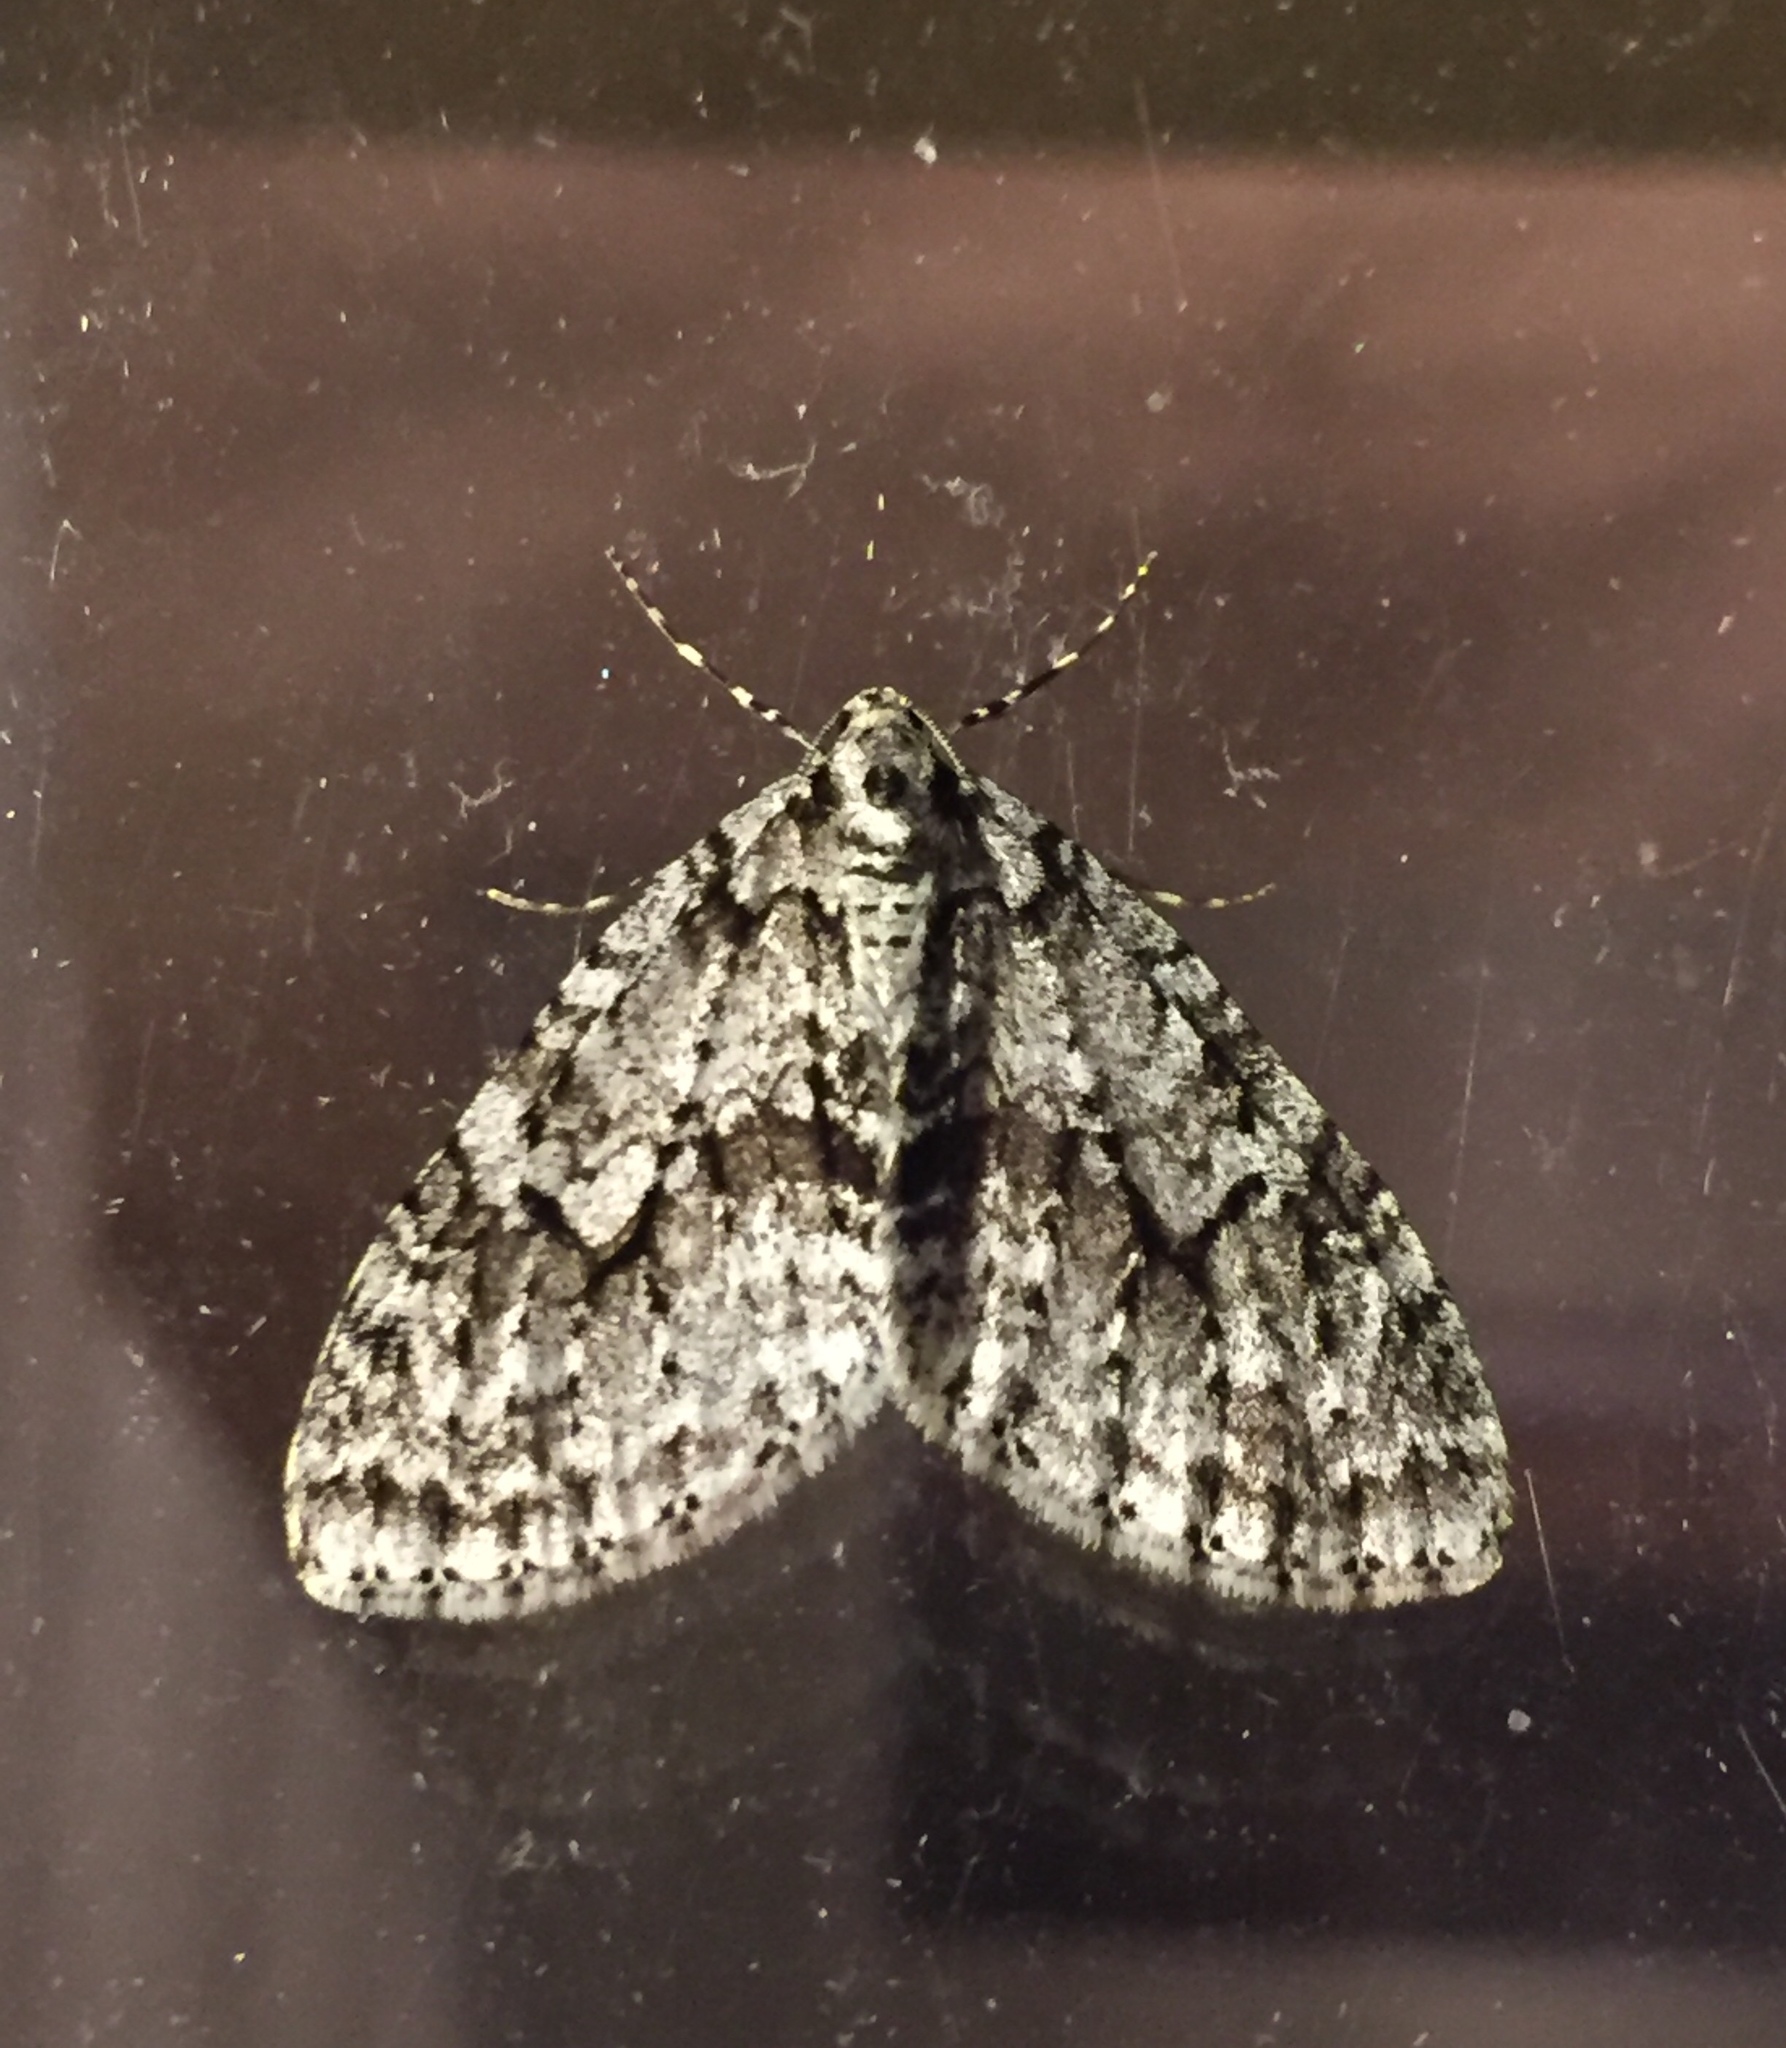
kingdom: Animalia
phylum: Arthropoda
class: Insecta
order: Lepidoptera
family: Geometridae
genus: Cladara
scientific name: Cladara limitaria
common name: Mottled gray carpet
